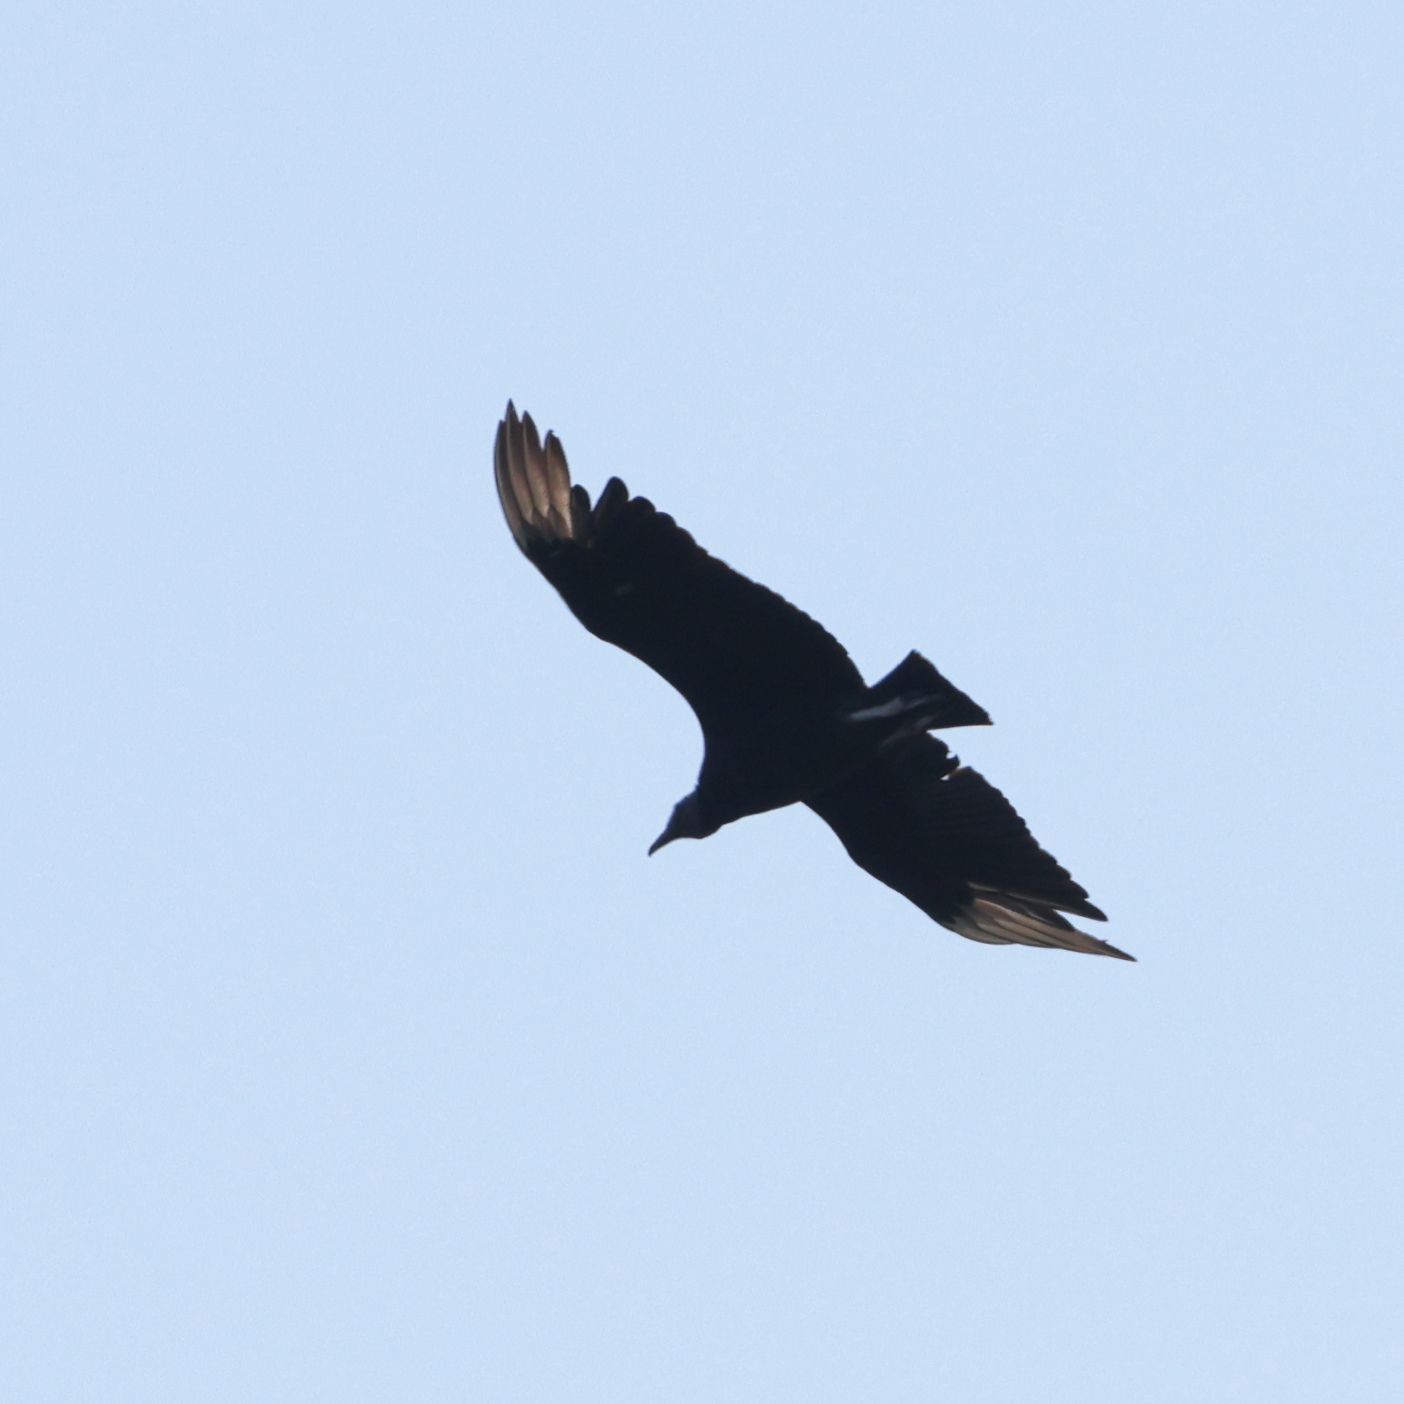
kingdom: Animalia
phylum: Chordata
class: Aves
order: Accipitriformes
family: Cathartidae
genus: Coragyps
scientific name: Coragyps atratus
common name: Black vulture
